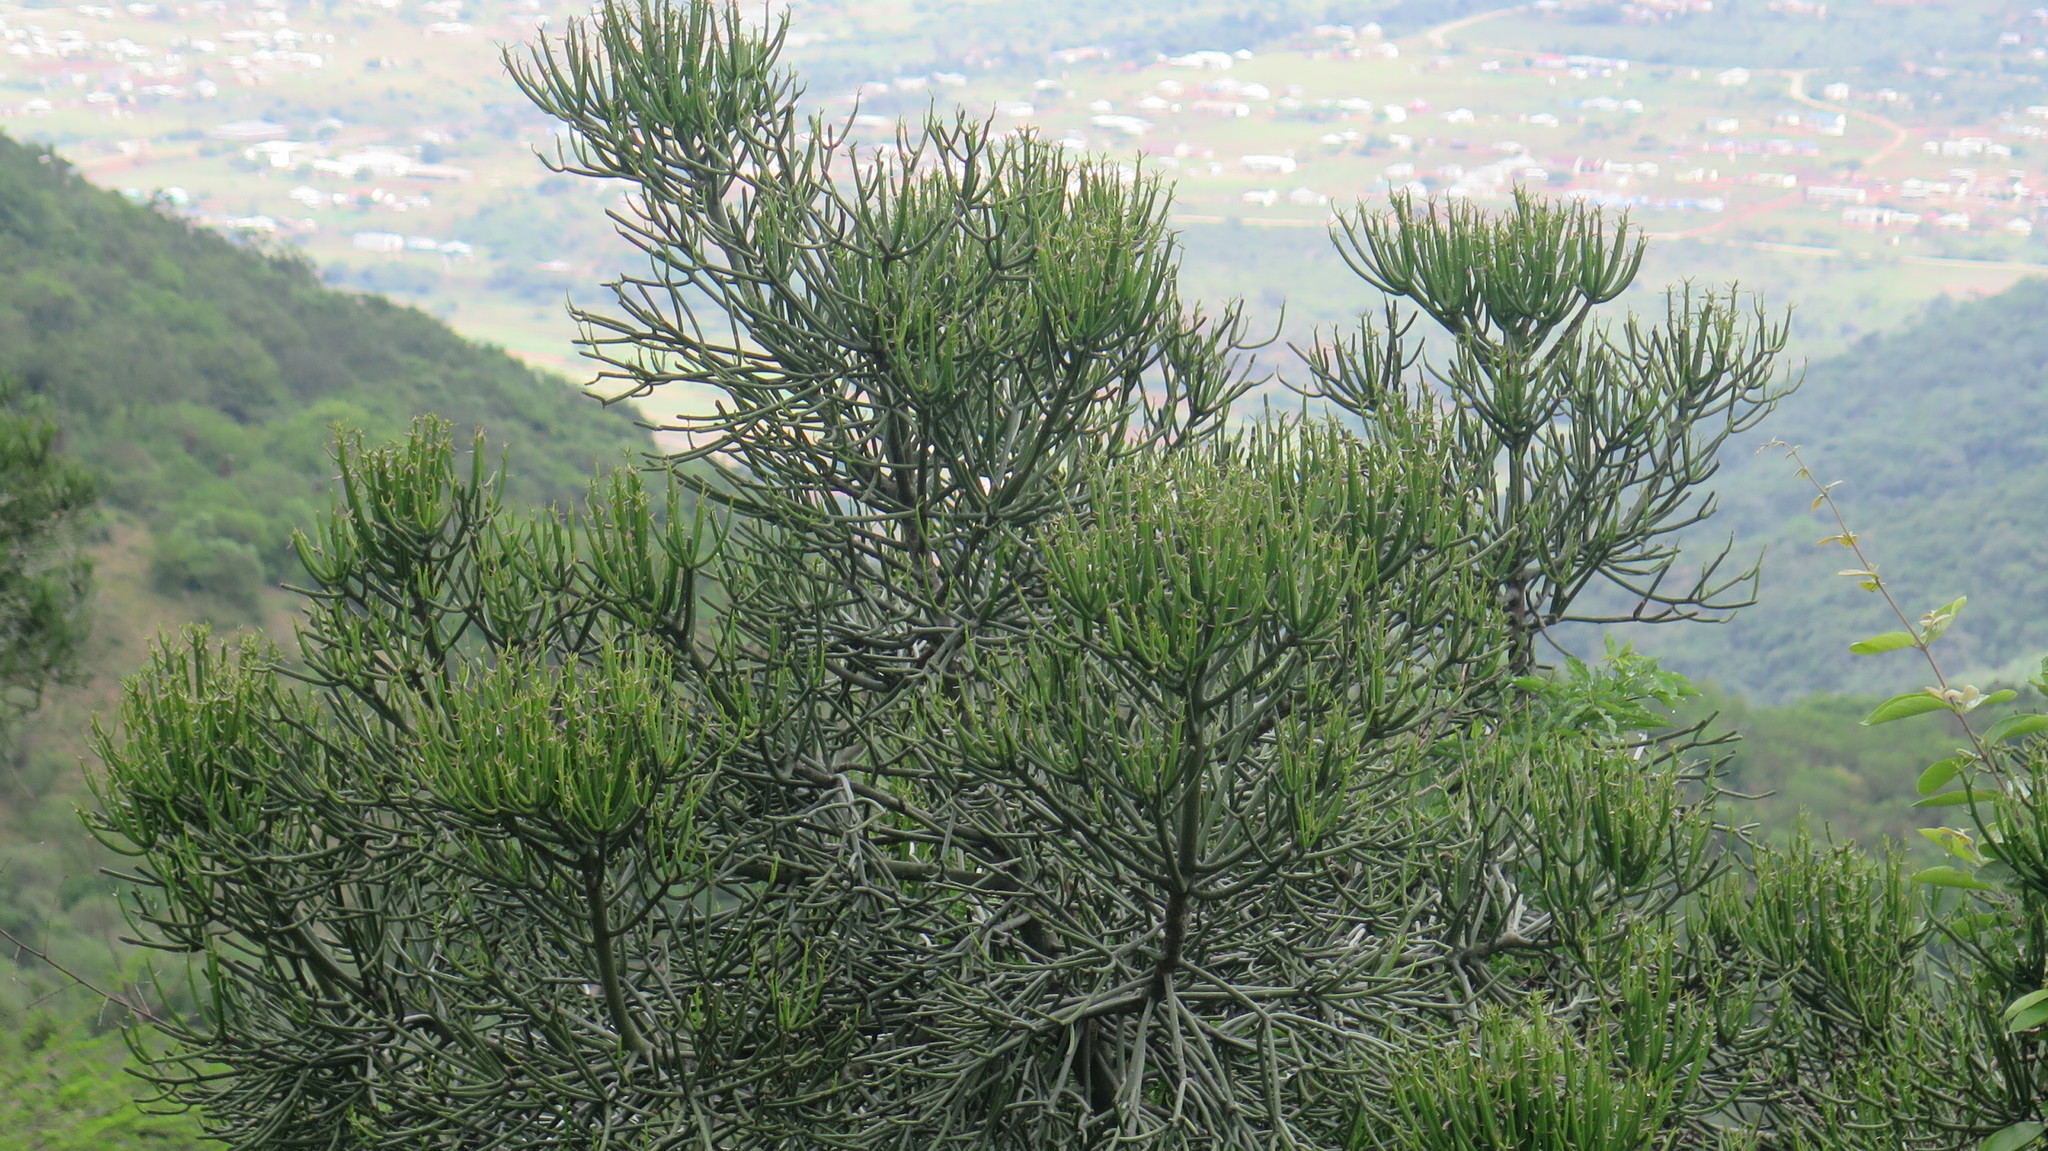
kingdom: Plantae
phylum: Tracheophyta
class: Magnoliopsida
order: Malpighiales
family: Euphorbiaceae
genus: Euphorbia
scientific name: Euphorbia ingens
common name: Cactus spurge
